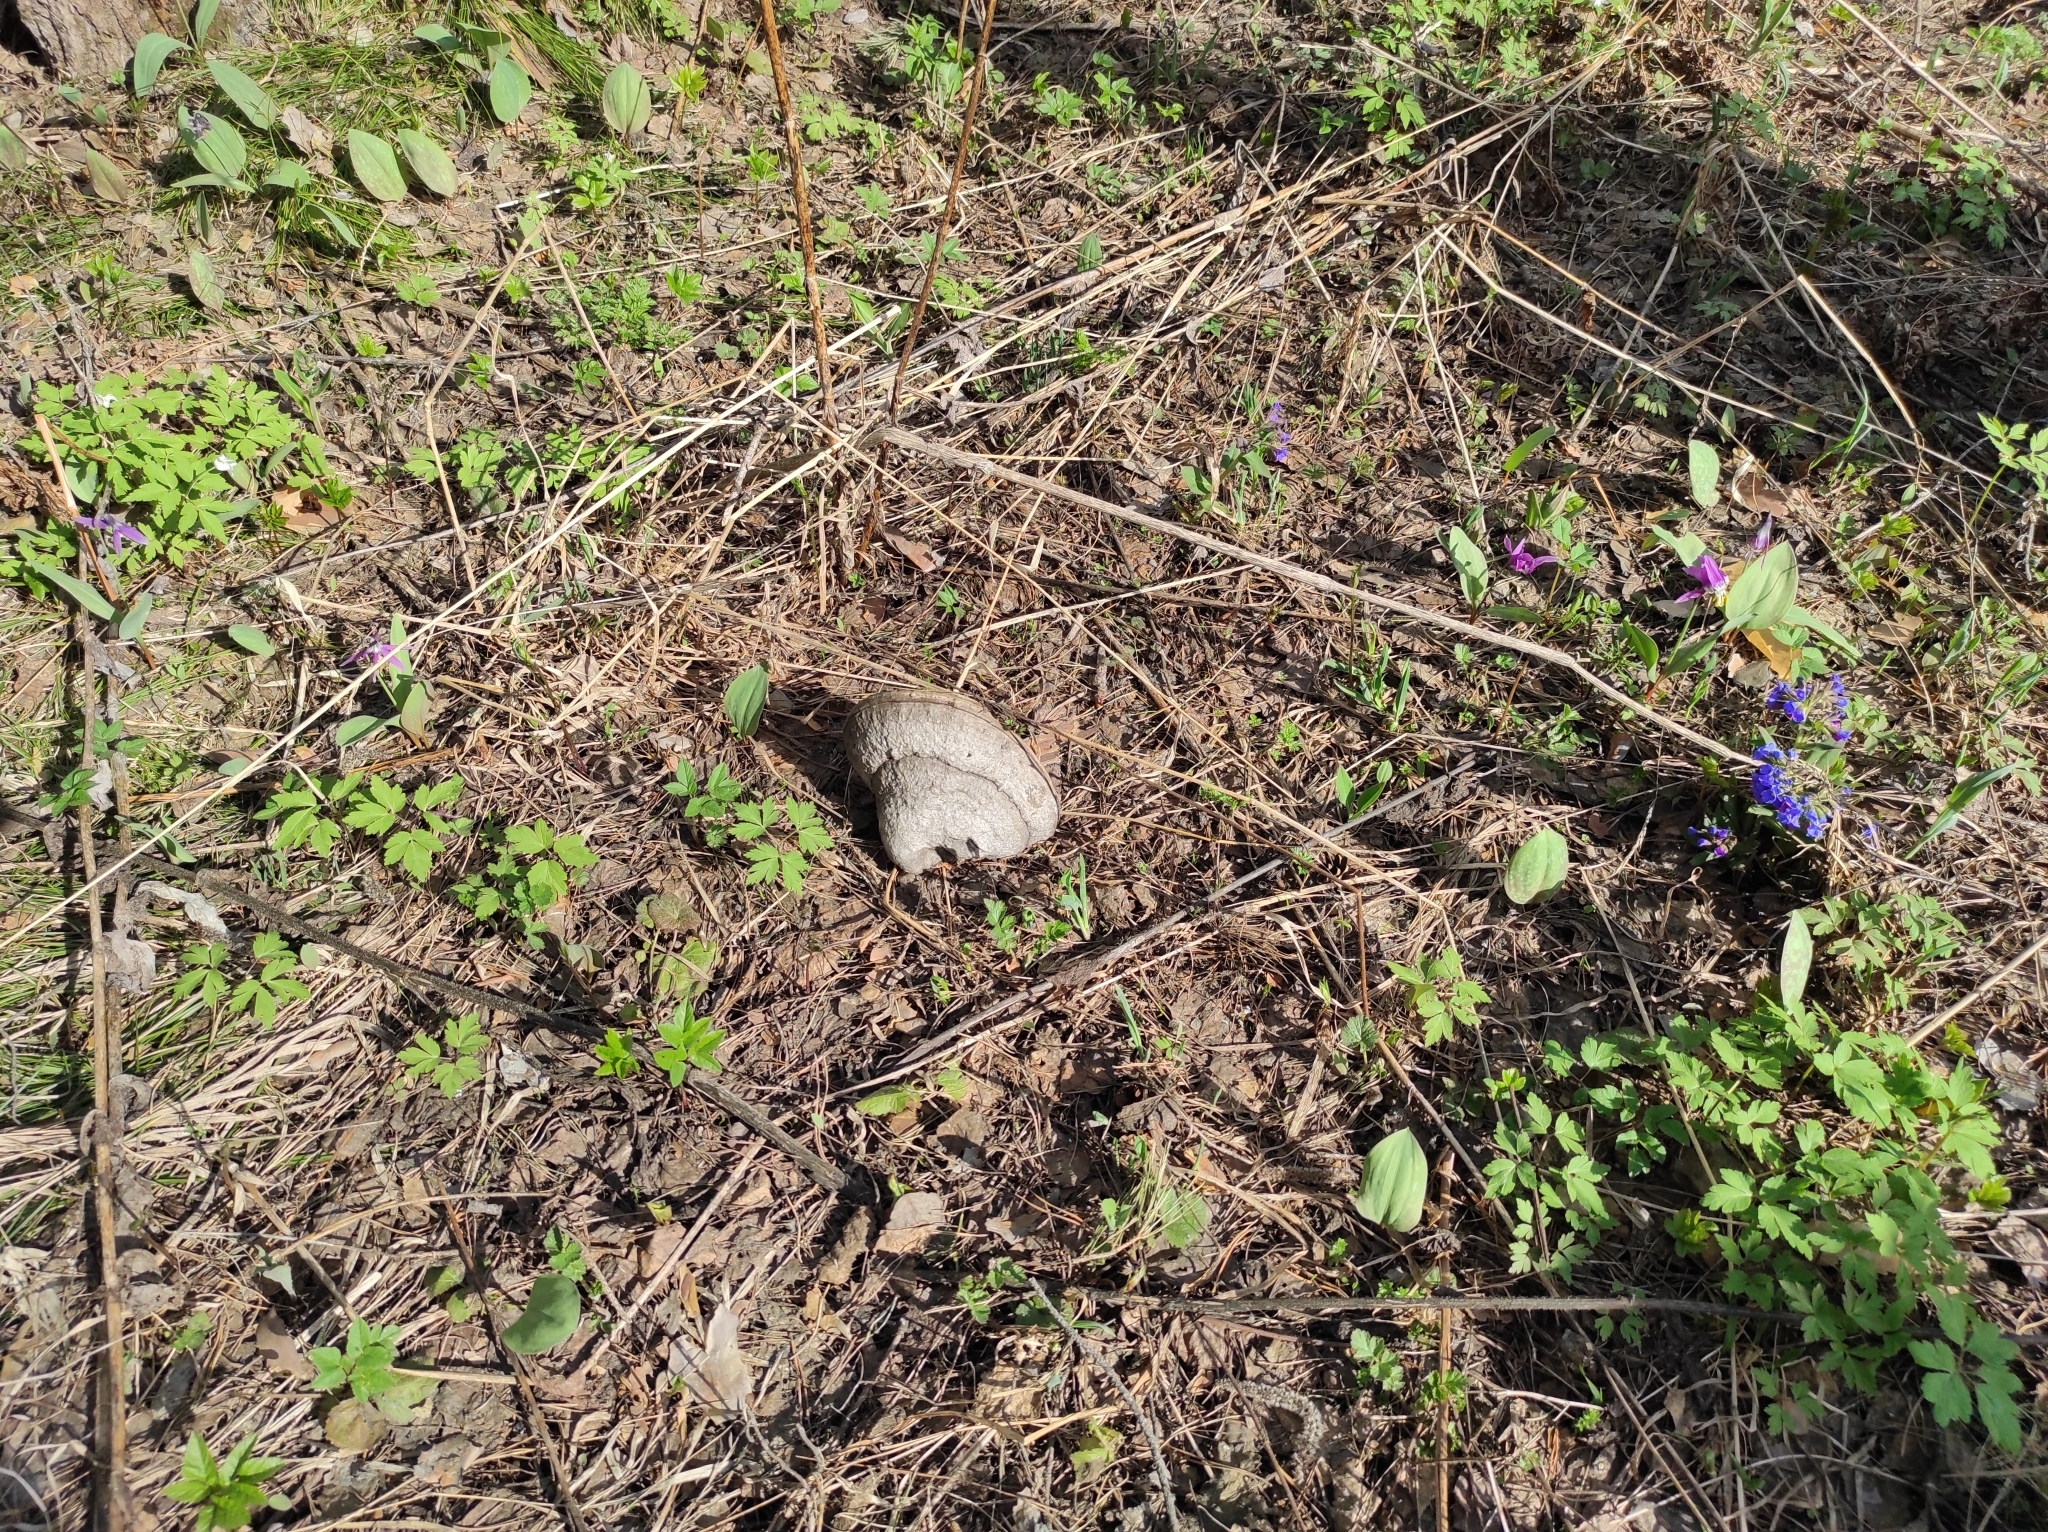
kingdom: Plantae
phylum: Tracheophyta
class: Magnoliopsida
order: Boraginales
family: Boraginaceae
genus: Pulmonaria
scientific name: Pulmonaria mollis
